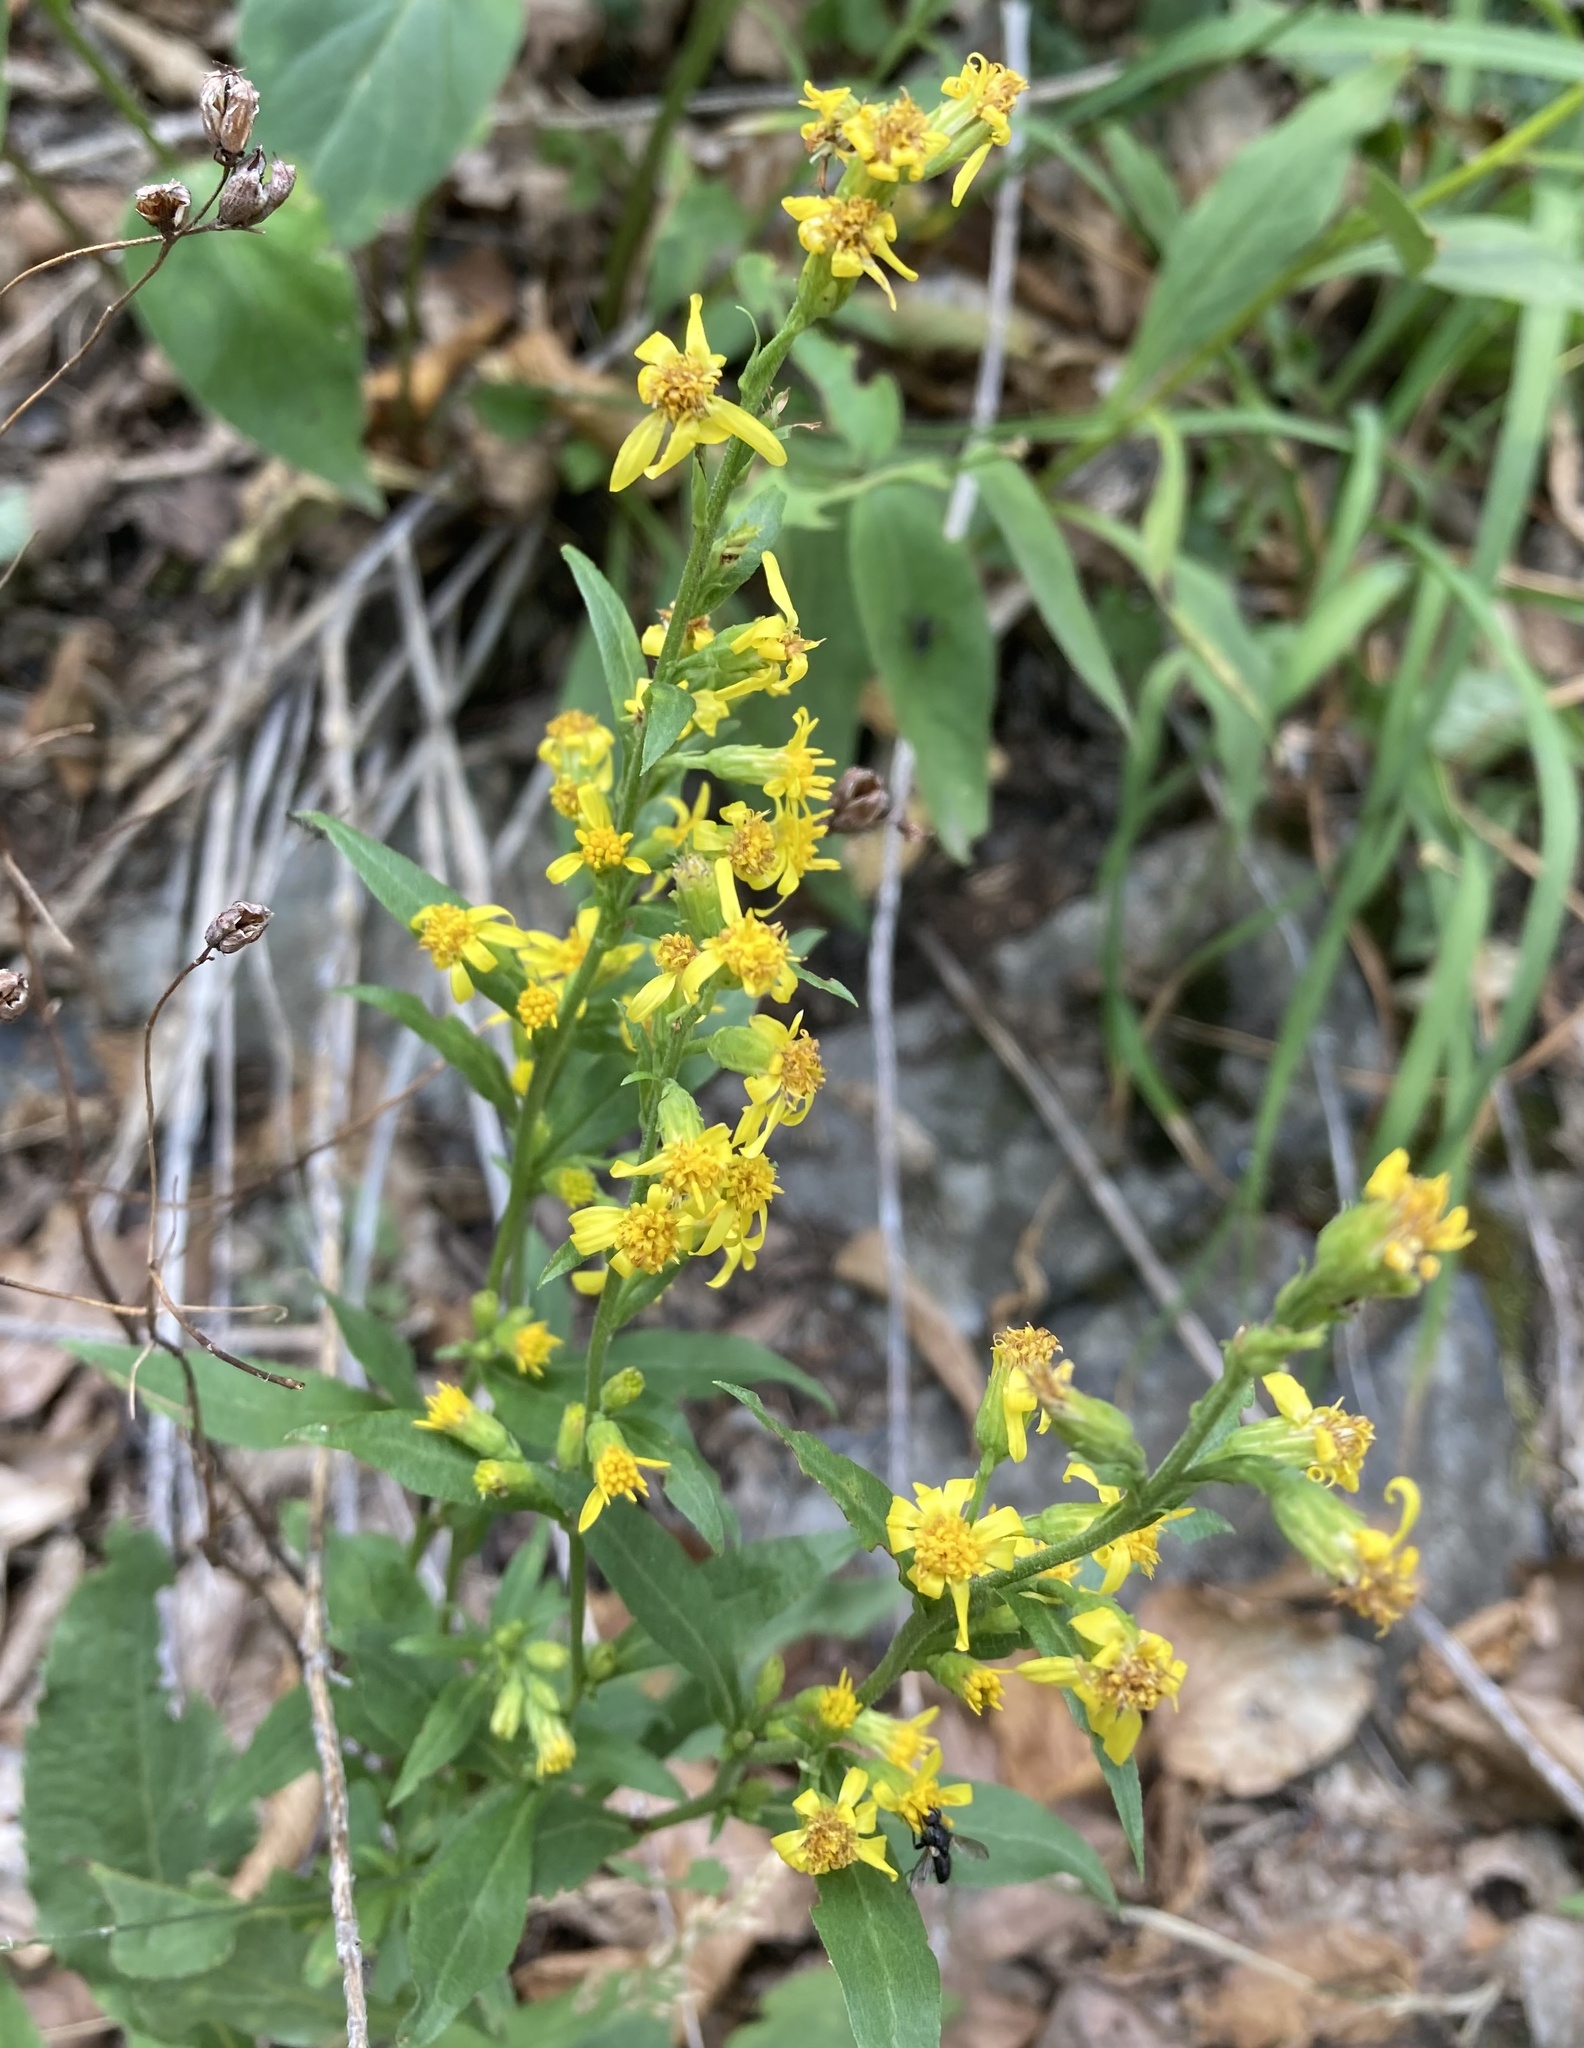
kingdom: Plantae
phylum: Tracheophyta
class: Magnoliopsida
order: Asterales
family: Asteraceae
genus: Solidago
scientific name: Solidago virgaurea
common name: Goldenrod
